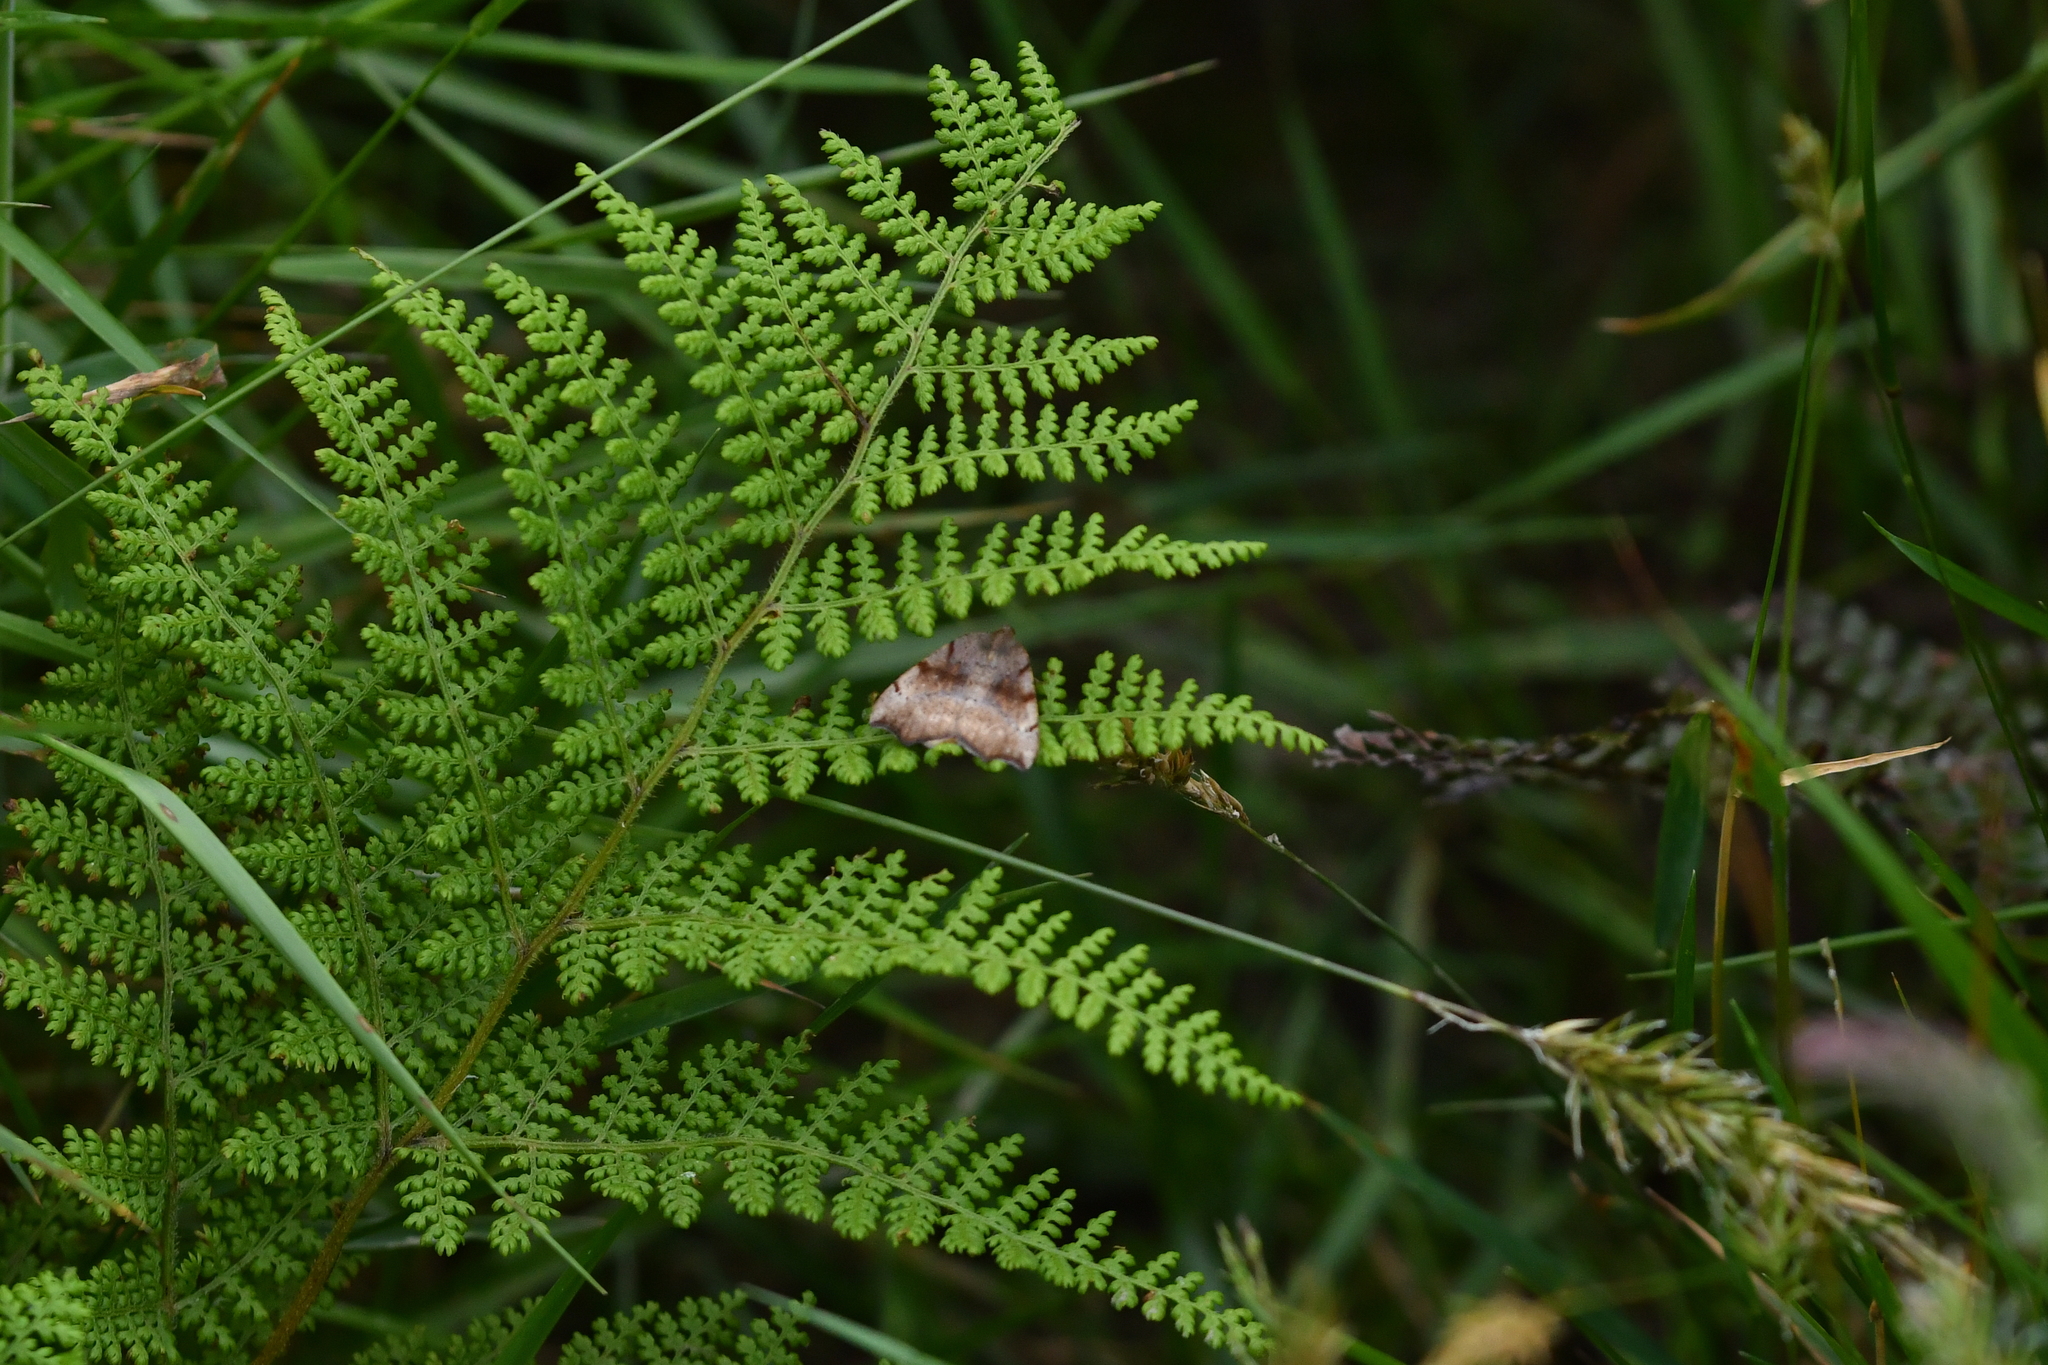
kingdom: Animalia
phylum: Arthropoda
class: Insecta
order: Lepidoptera
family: Geometridae
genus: Sestra
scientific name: Sestra flexata
